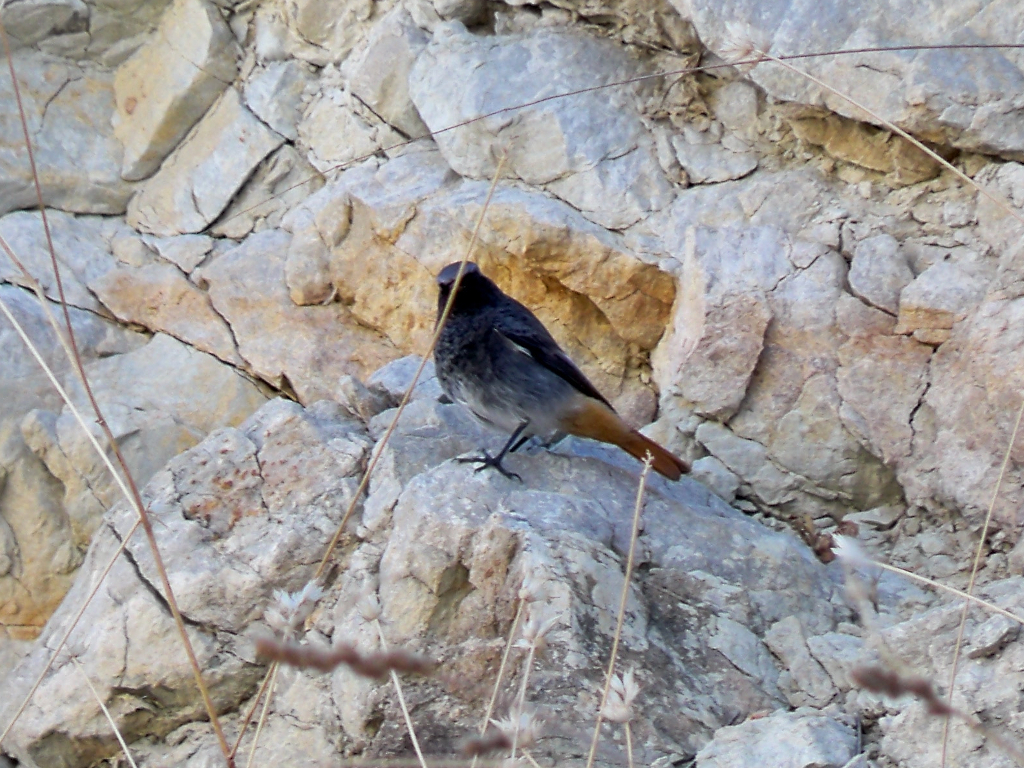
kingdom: Animalia
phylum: Chordata
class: Aves
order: Passeriformes
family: Muscicapidae
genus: Phoenicurus
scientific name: Phoenicurus ochruros
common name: Black redstart
